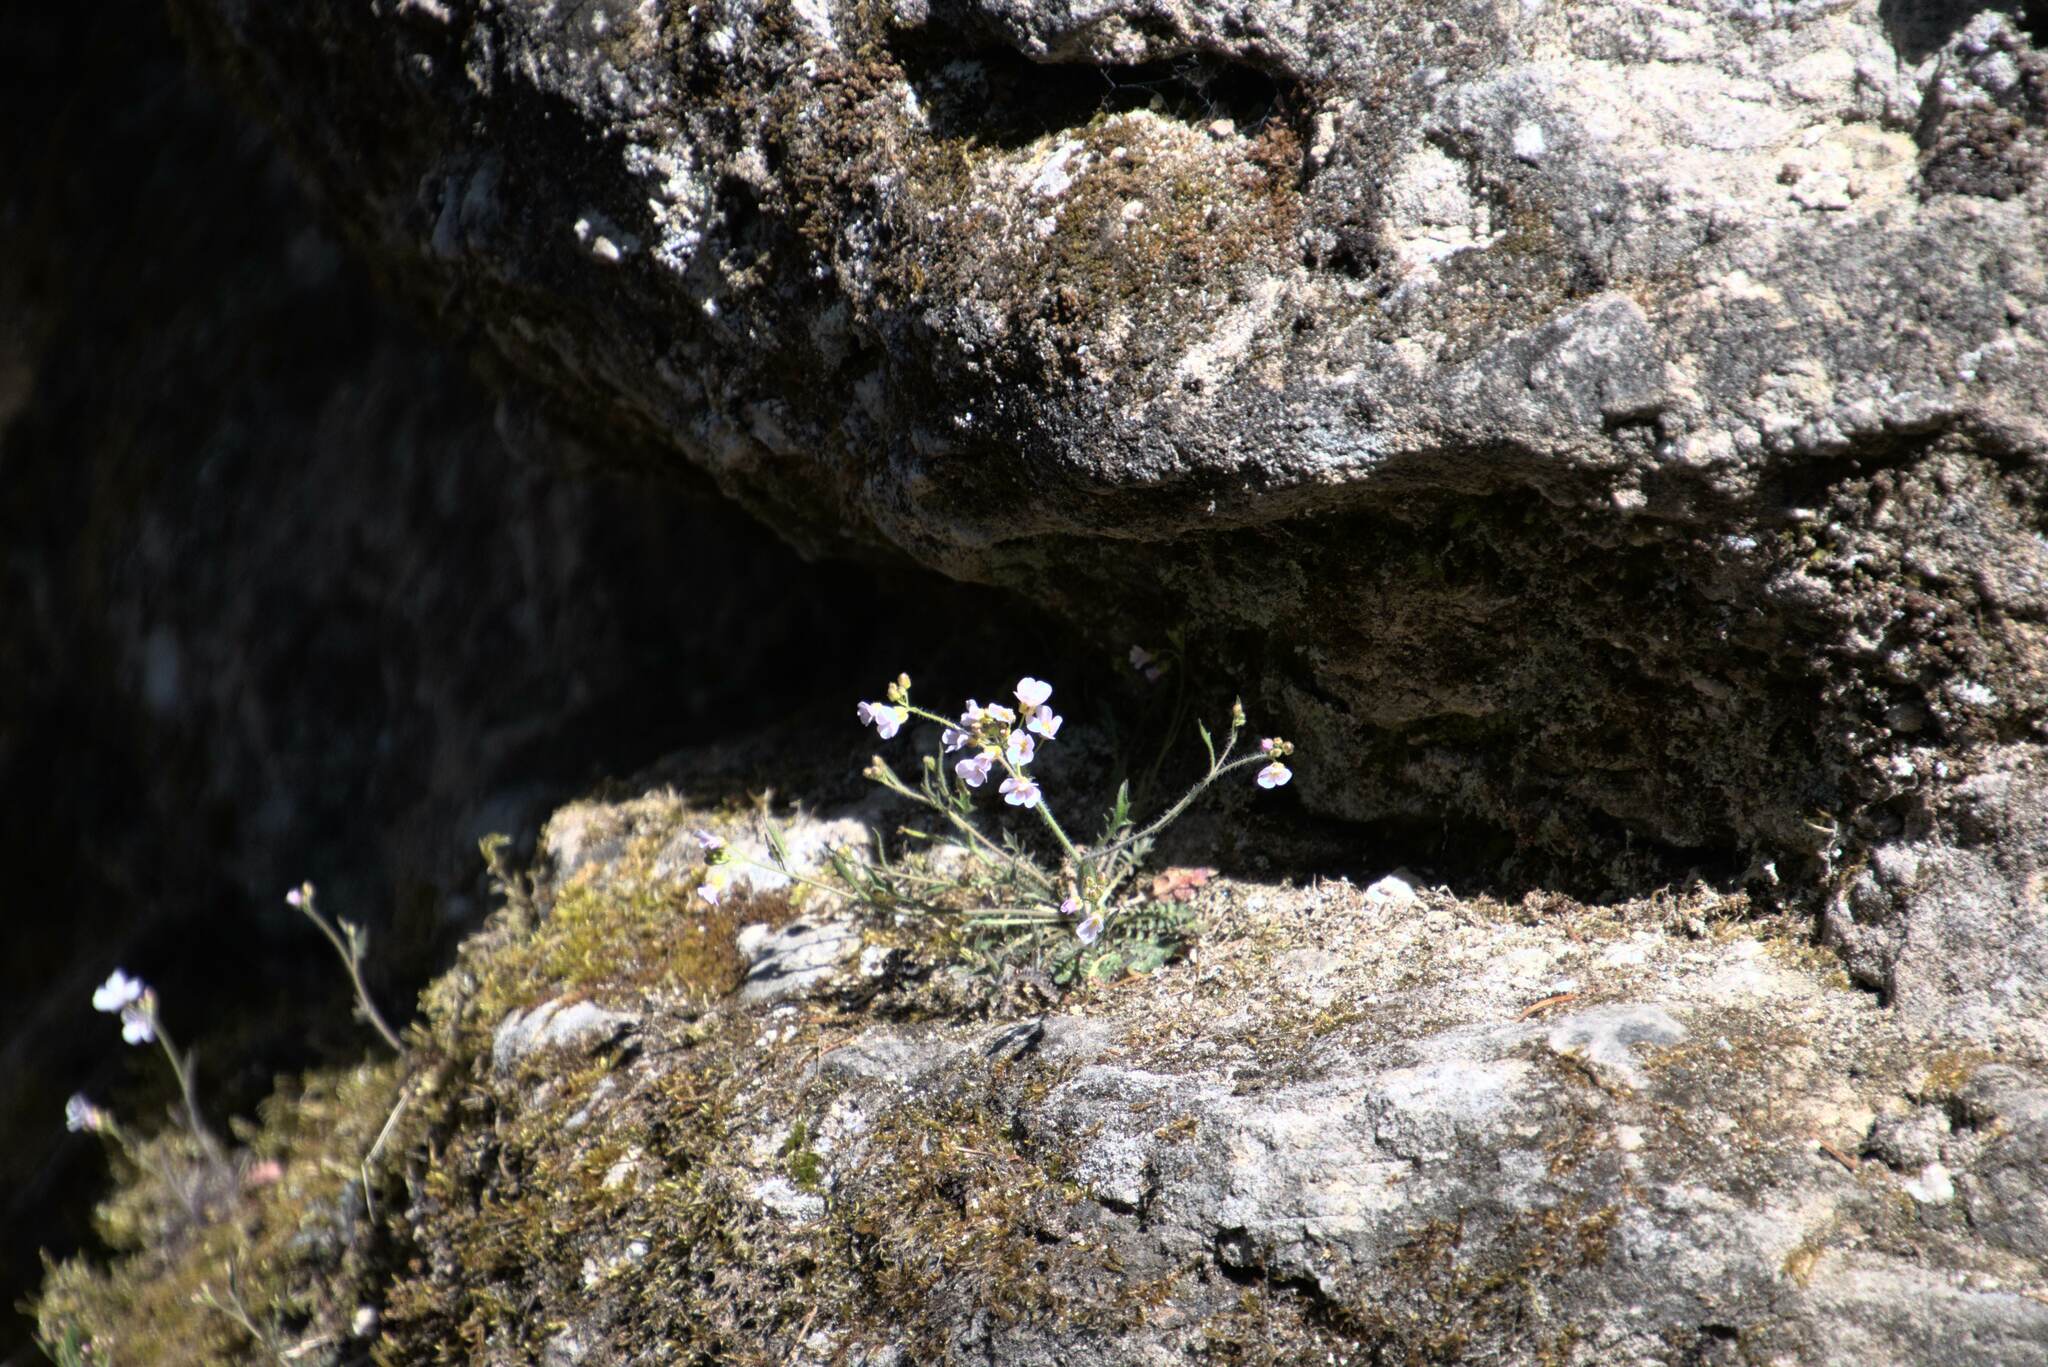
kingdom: Plantae
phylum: Tracheophyta
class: Magnoliopsida
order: Brassicales
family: Brassicaceae
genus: Arabidopsis
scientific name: Arabidopsis arenosa
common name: Sand rock-cress
